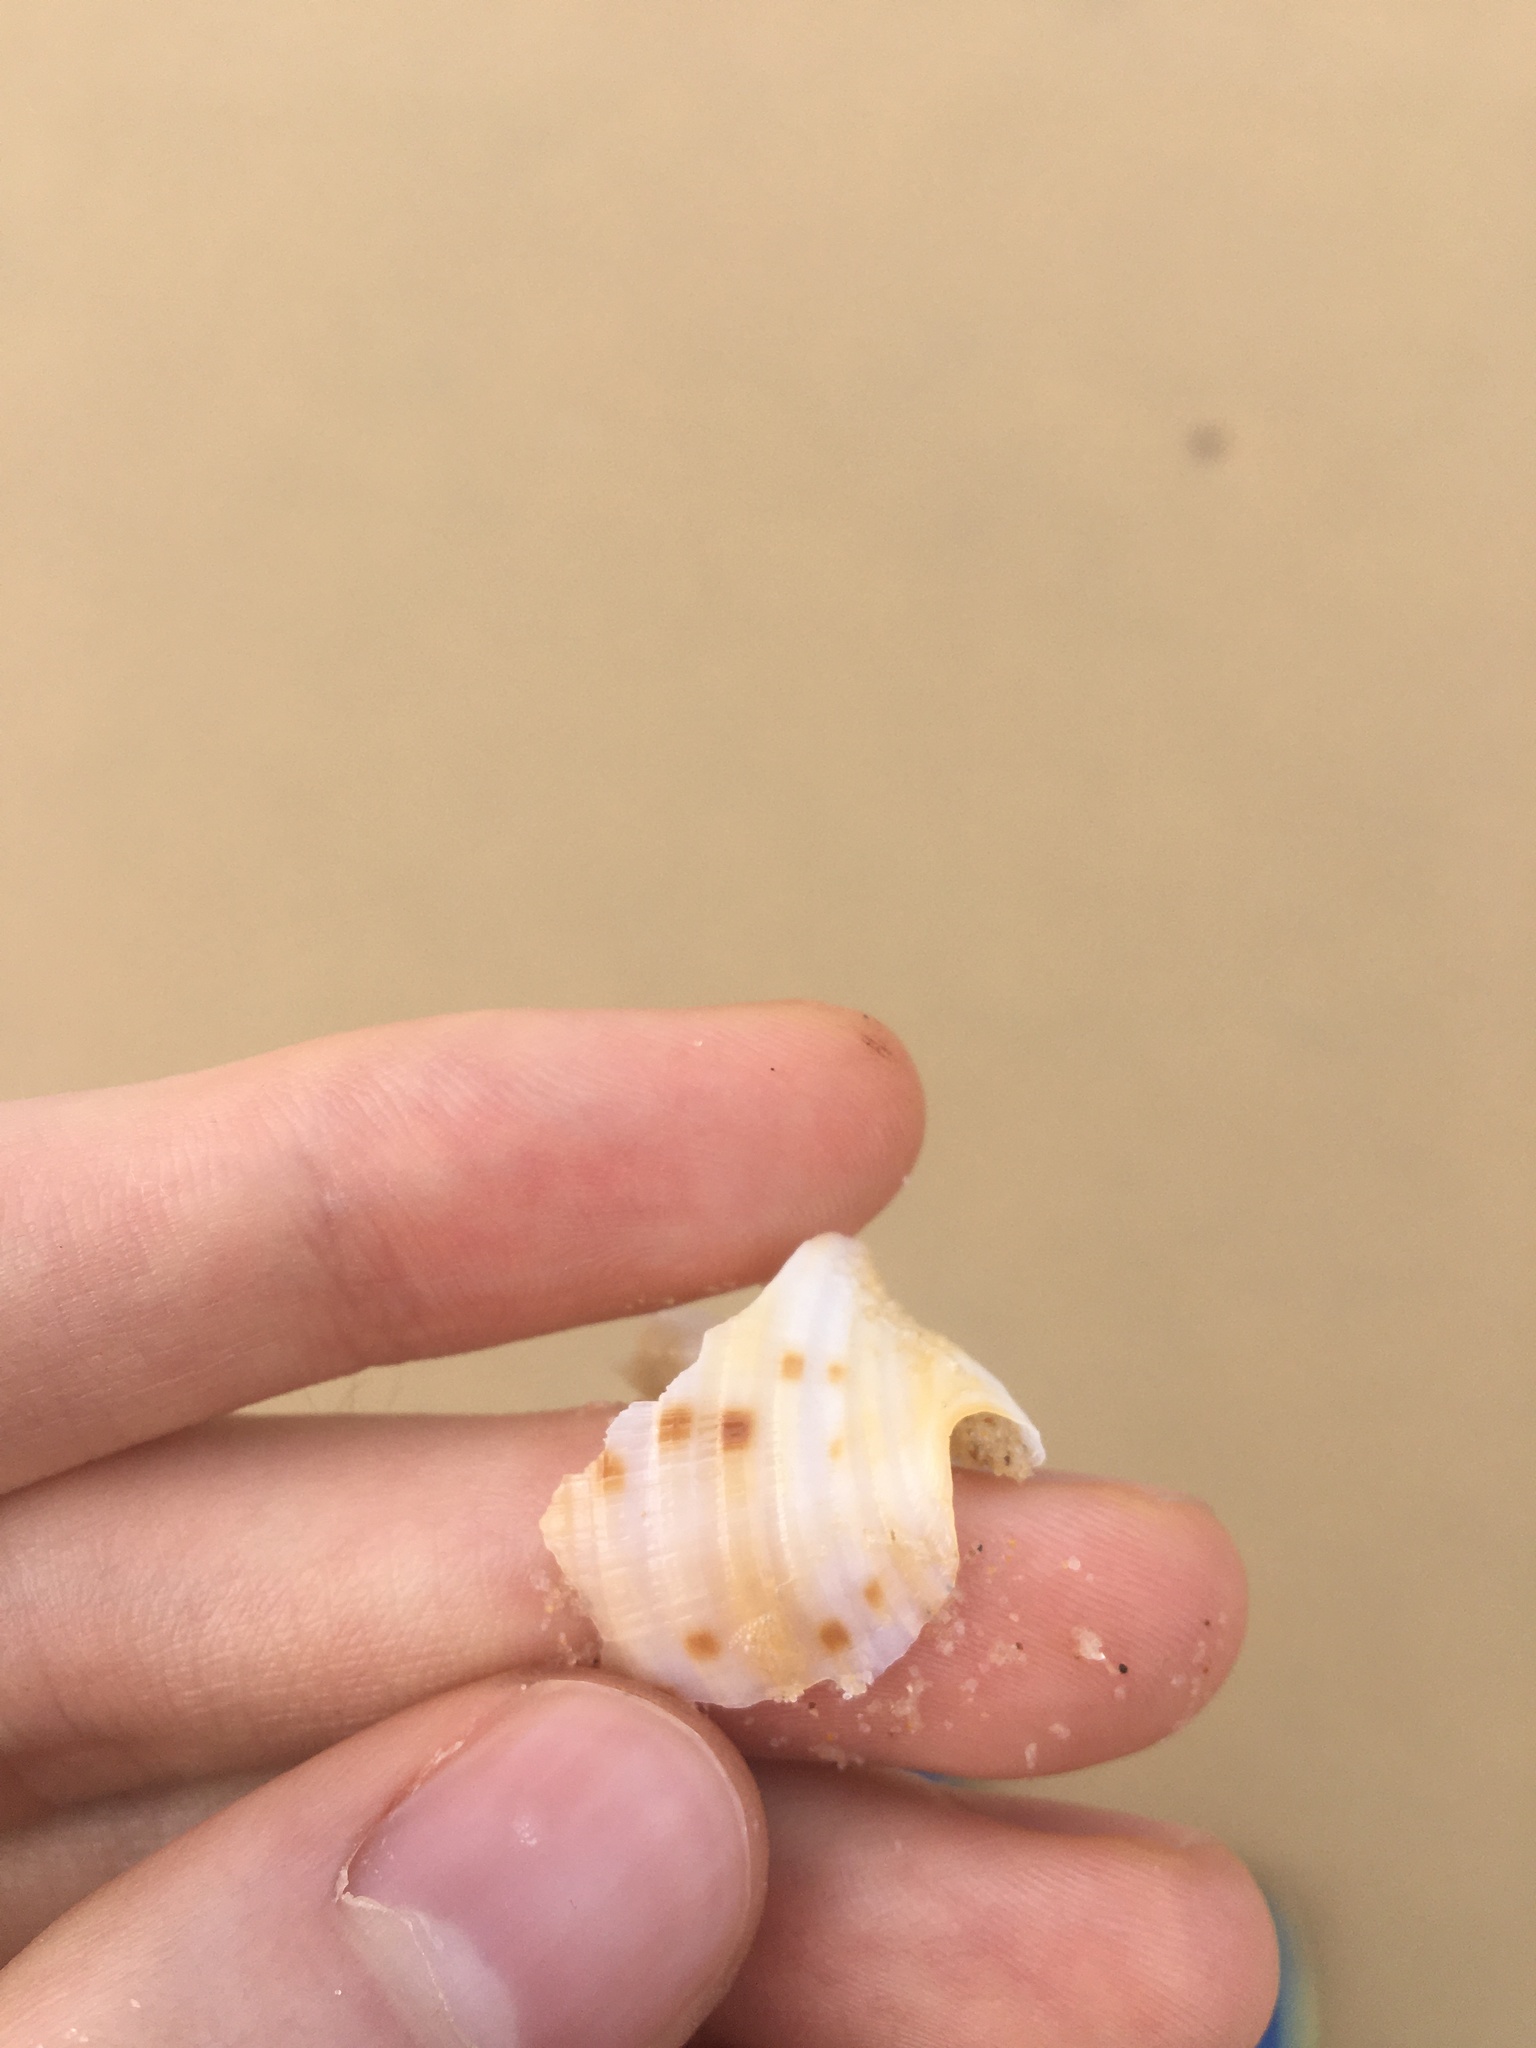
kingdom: Animalia
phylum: Mollusca
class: Gastropoda
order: Littorinimorpha
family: Tonnidae
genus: Tonna
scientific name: Tonna tankervillii
